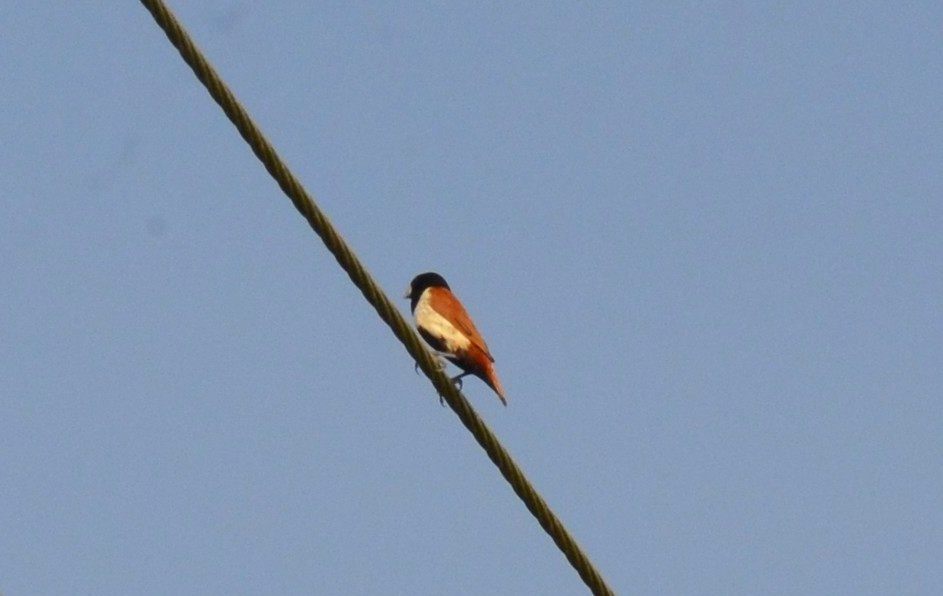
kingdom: Animalia
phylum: Chordata
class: Aves
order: Passeriformes
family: Estrildidae
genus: Lonchura
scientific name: Lonchura malacca
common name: Tricolored munia
